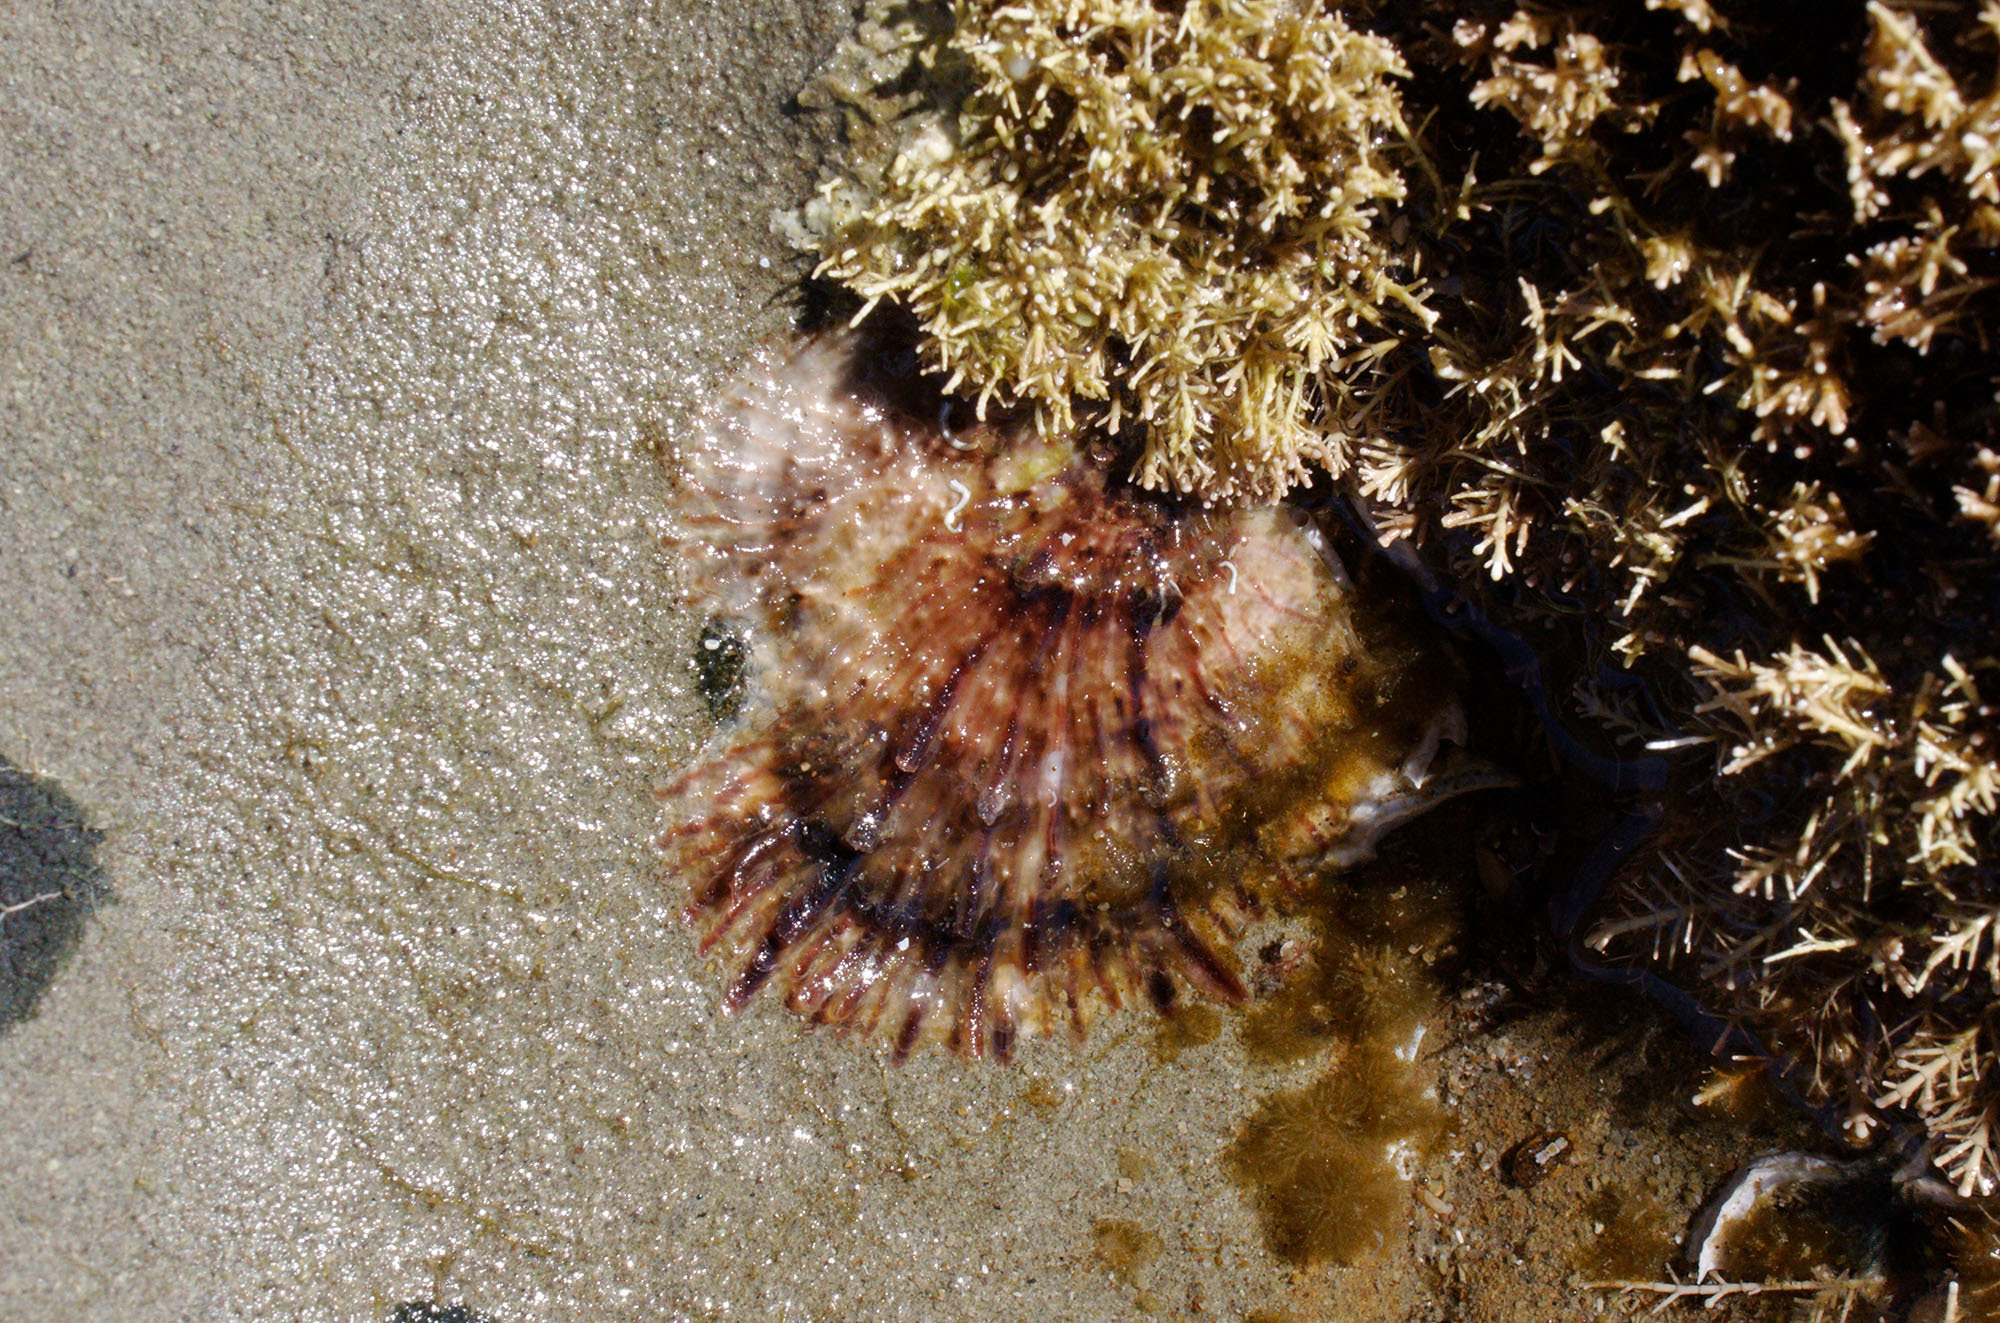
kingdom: Animalia
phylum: Mollusca
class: Bivalvia
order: Ostreida
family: Ostreidae
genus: Magallana
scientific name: Magallana gigas
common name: Pacific oyster
